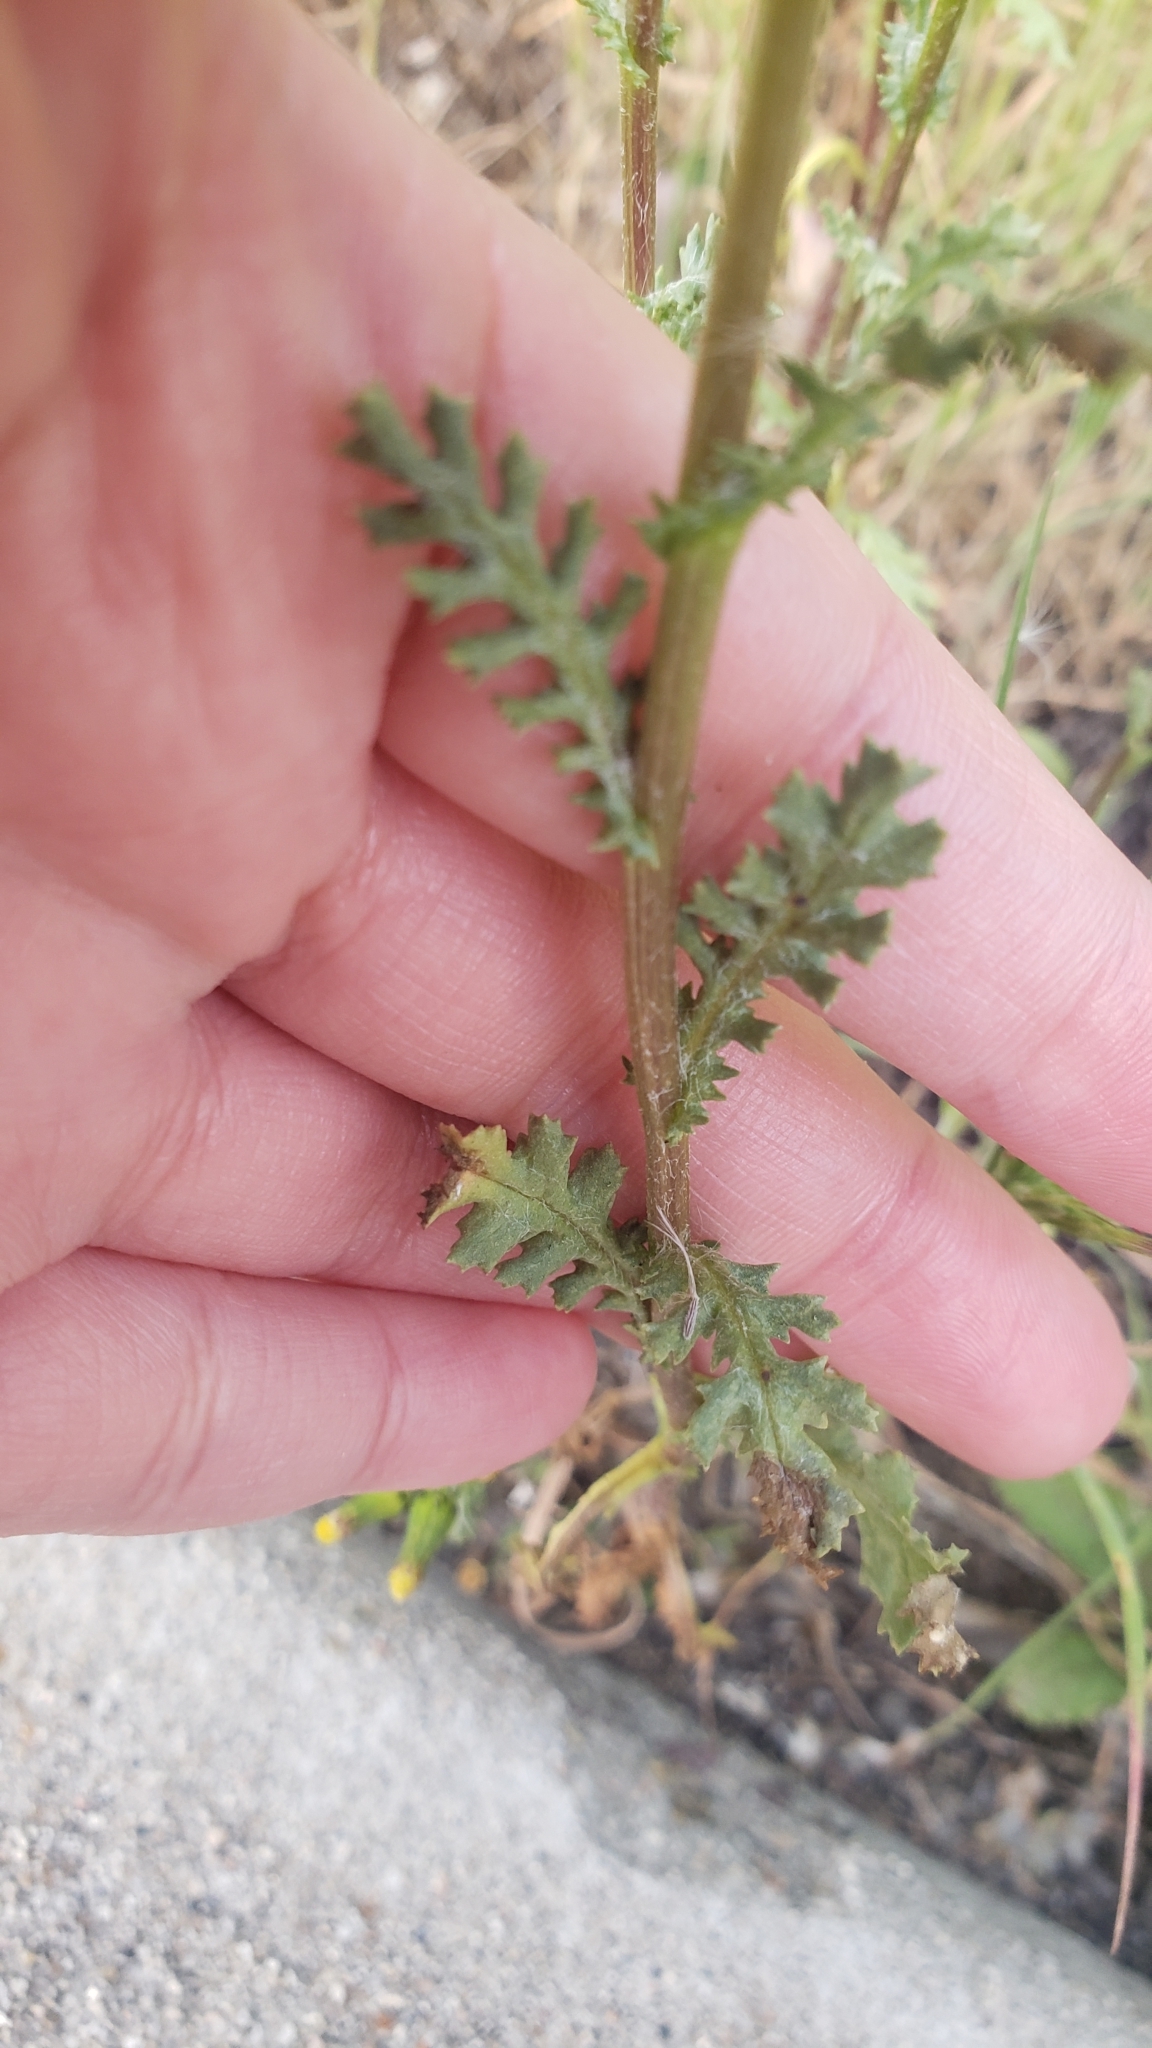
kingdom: Plantae
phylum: Tracheophyta
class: Magnoliopsida
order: Asterales
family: Asteraceae
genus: Senecio
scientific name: Senecio vulgaris
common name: Old-man-in-the-spring
